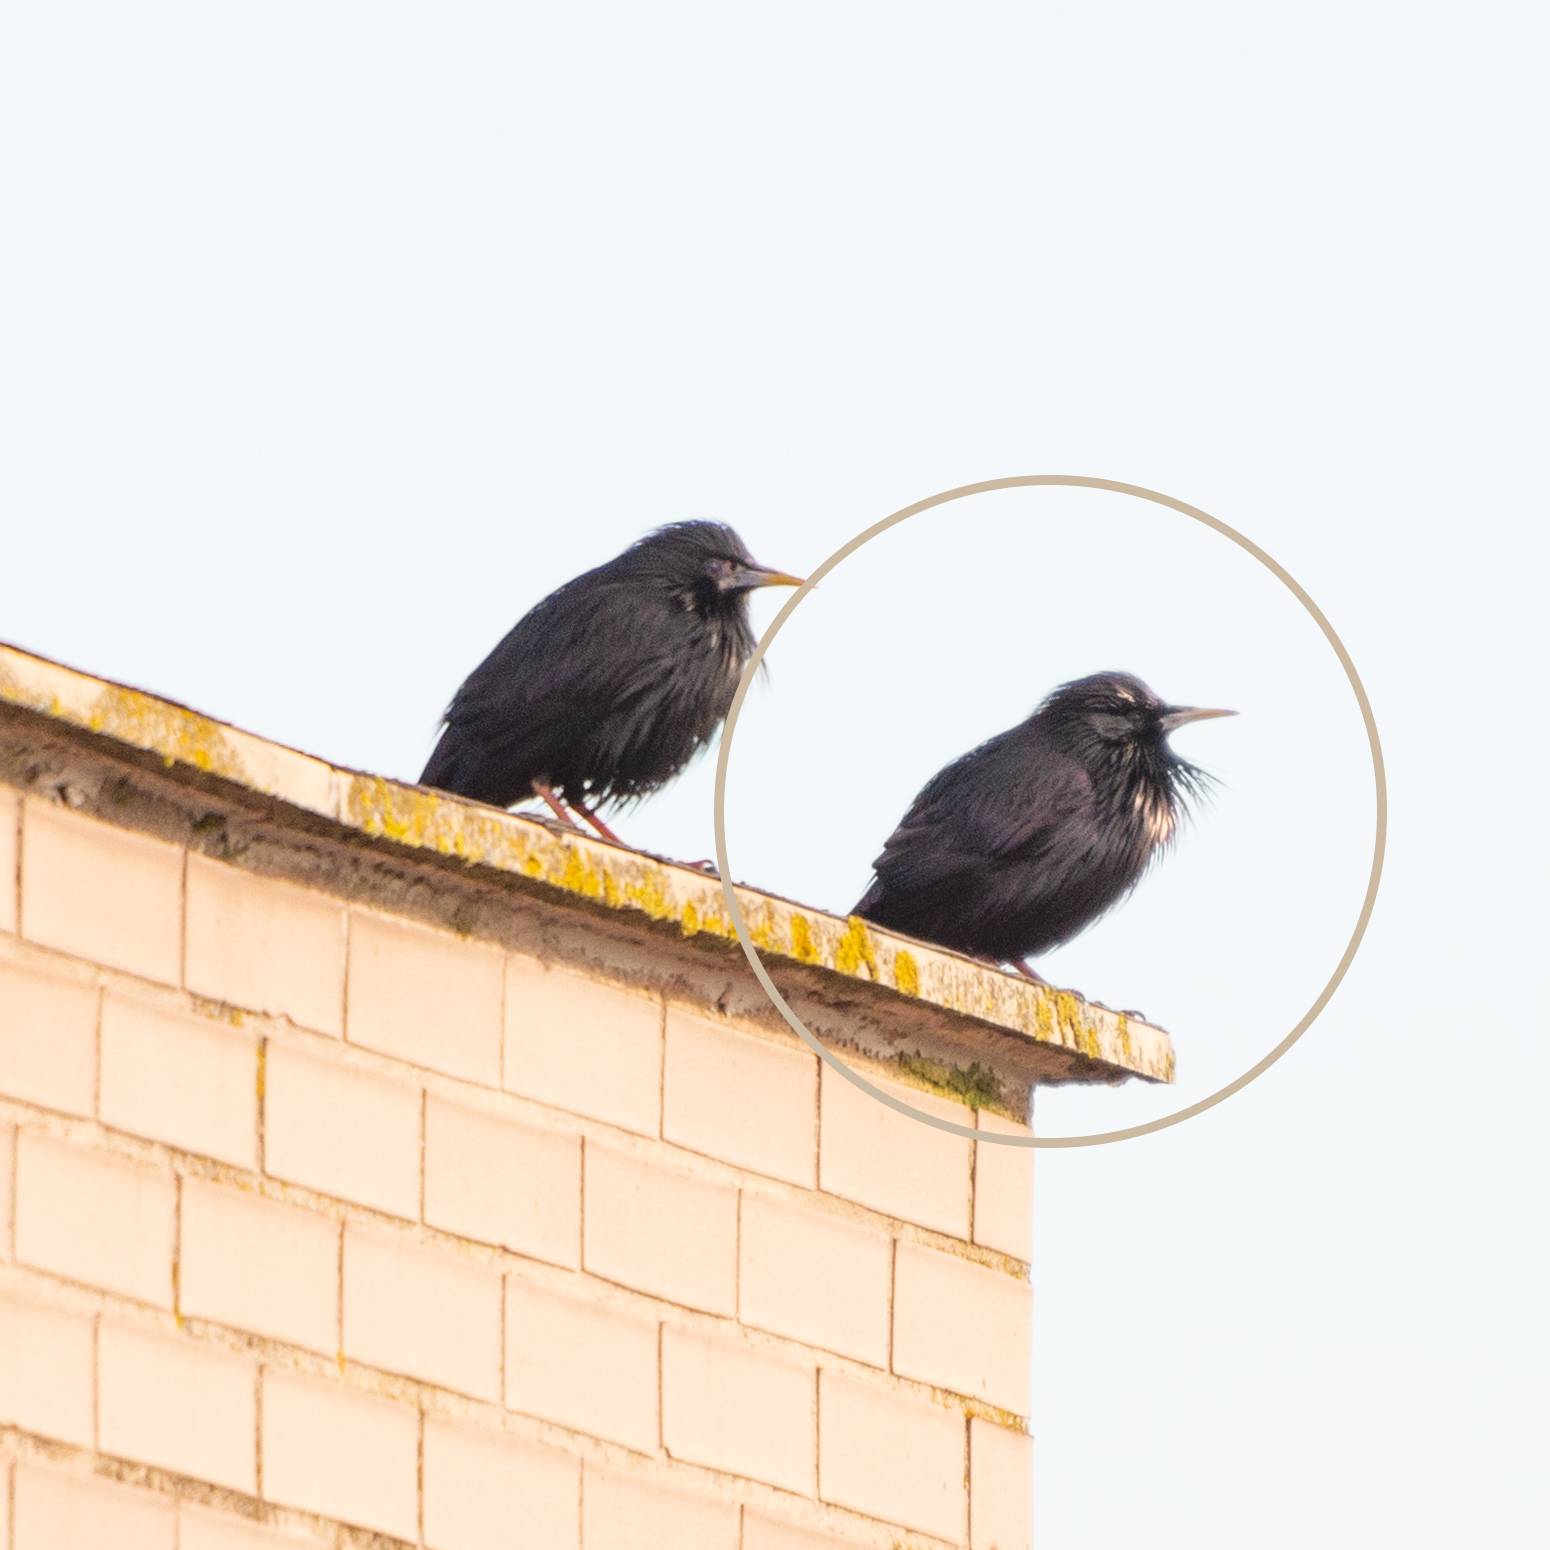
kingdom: Animalia
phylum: Chordata
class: Aves
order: Passeriformes
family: Sturnidae
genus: Sturnus
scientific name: Sturnus unicolor
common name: Spotless starling
